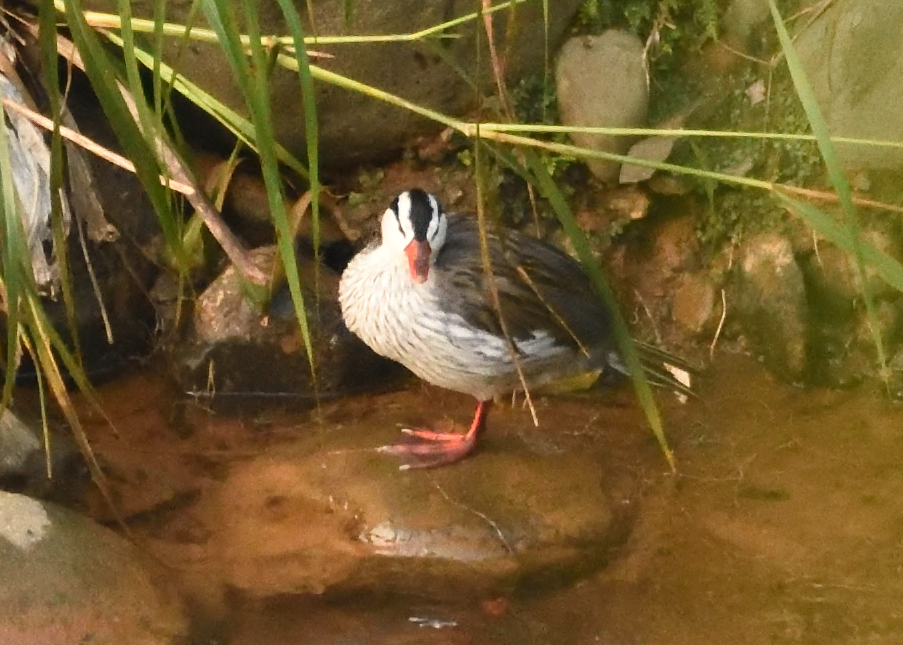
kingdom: Animalia
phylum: Chordata
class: Aves
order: Anseriformes
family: Anatidae
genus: Merganetta
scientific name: Merganetta armata
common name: Torrent duck
